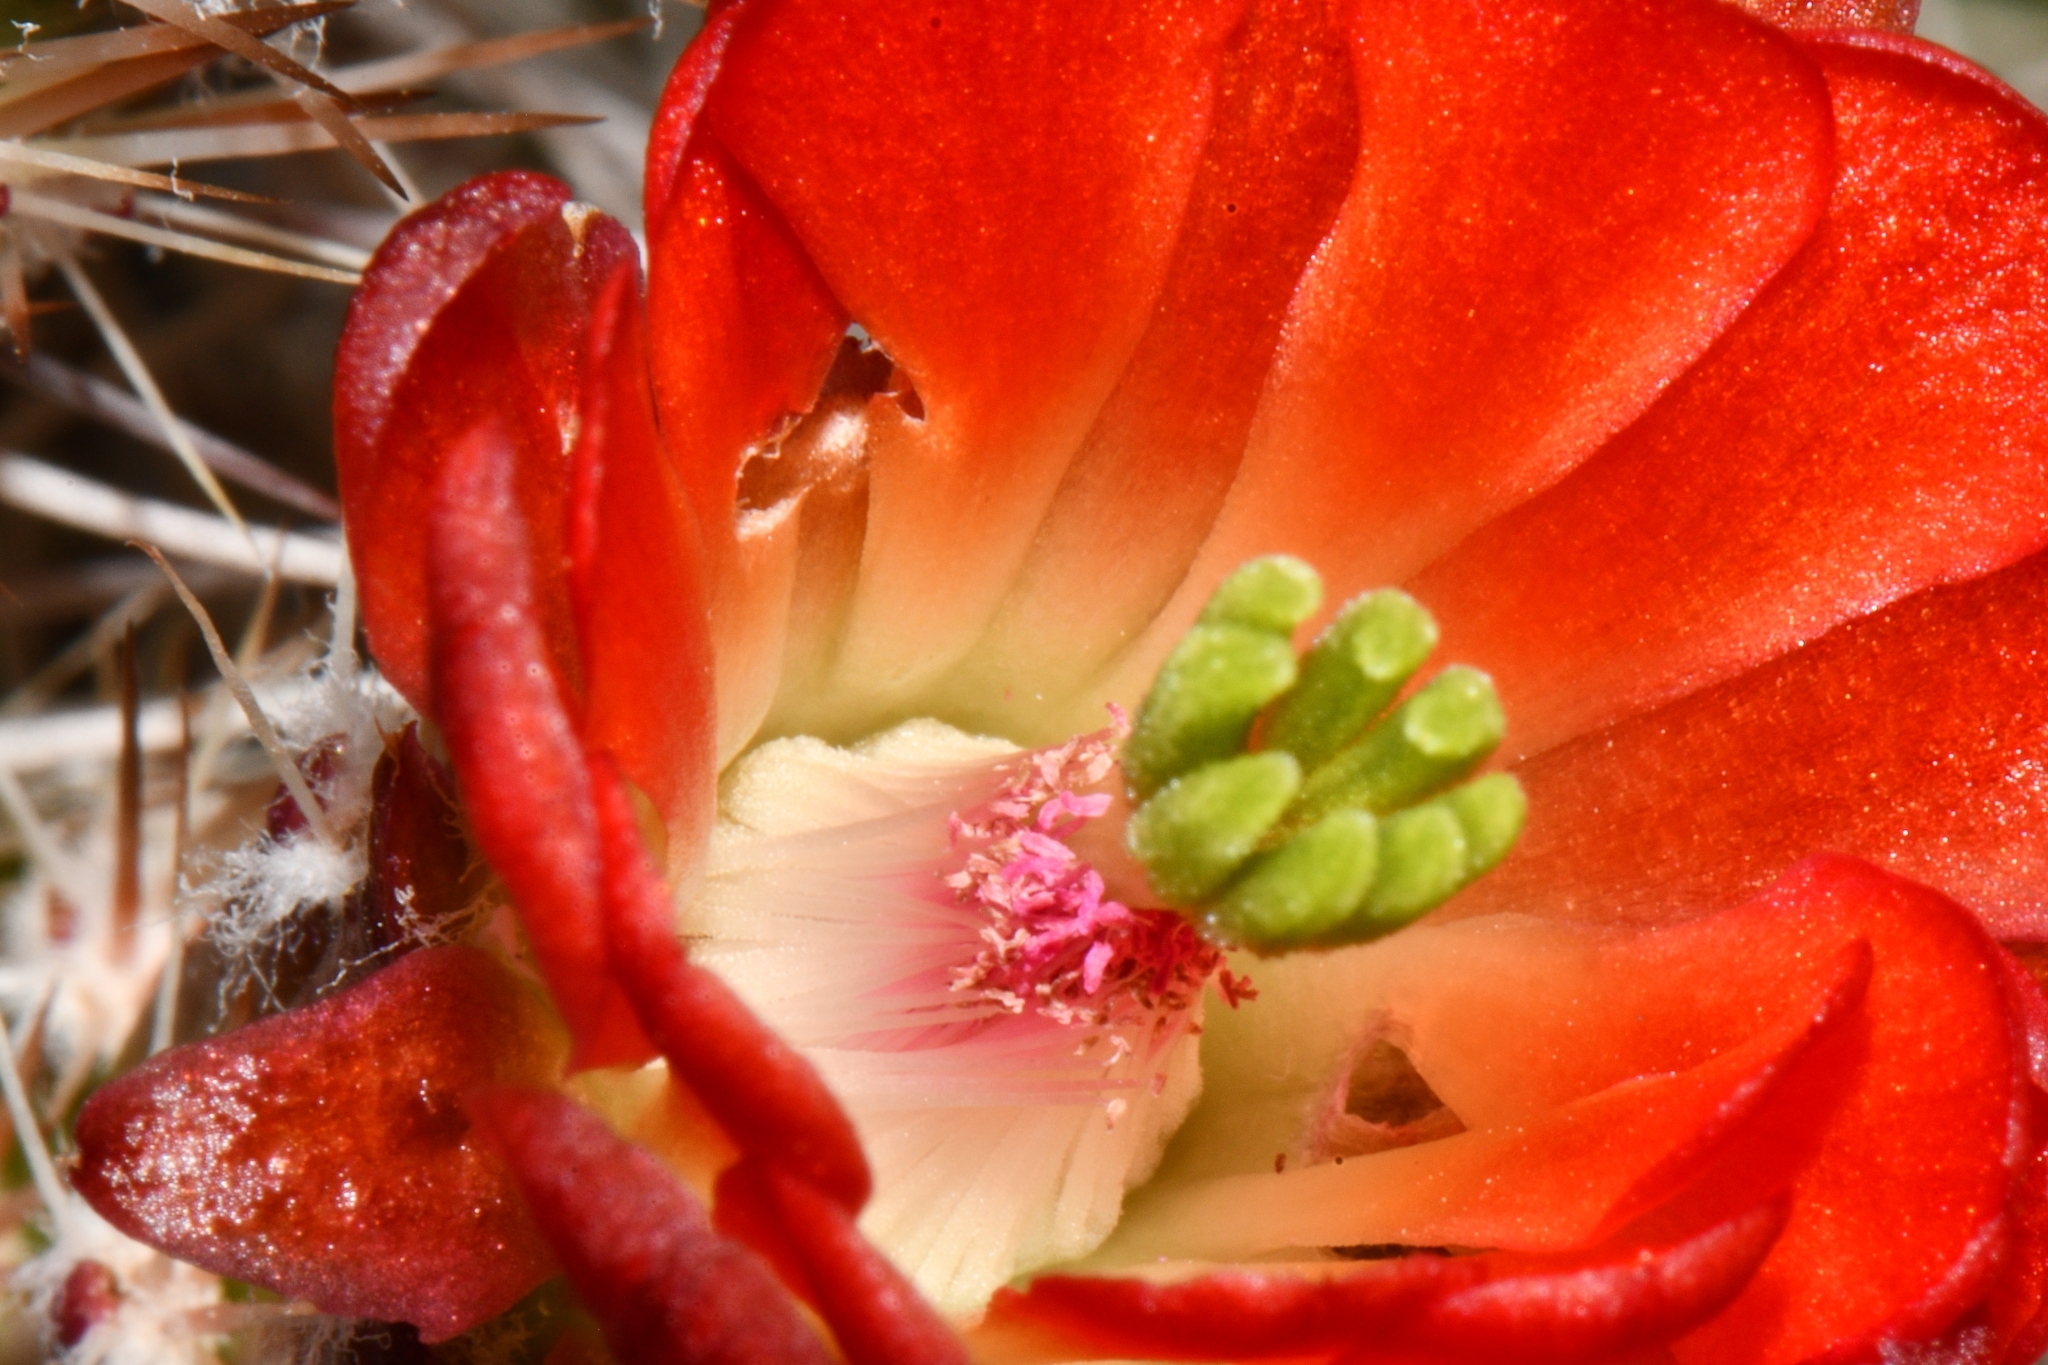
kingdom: Plantae
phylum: Tracheophyta
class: Magnoliopsida
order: Caryophyllales
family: Cactaceae
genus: Echinocereus
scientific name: Echinocereus bakeri
